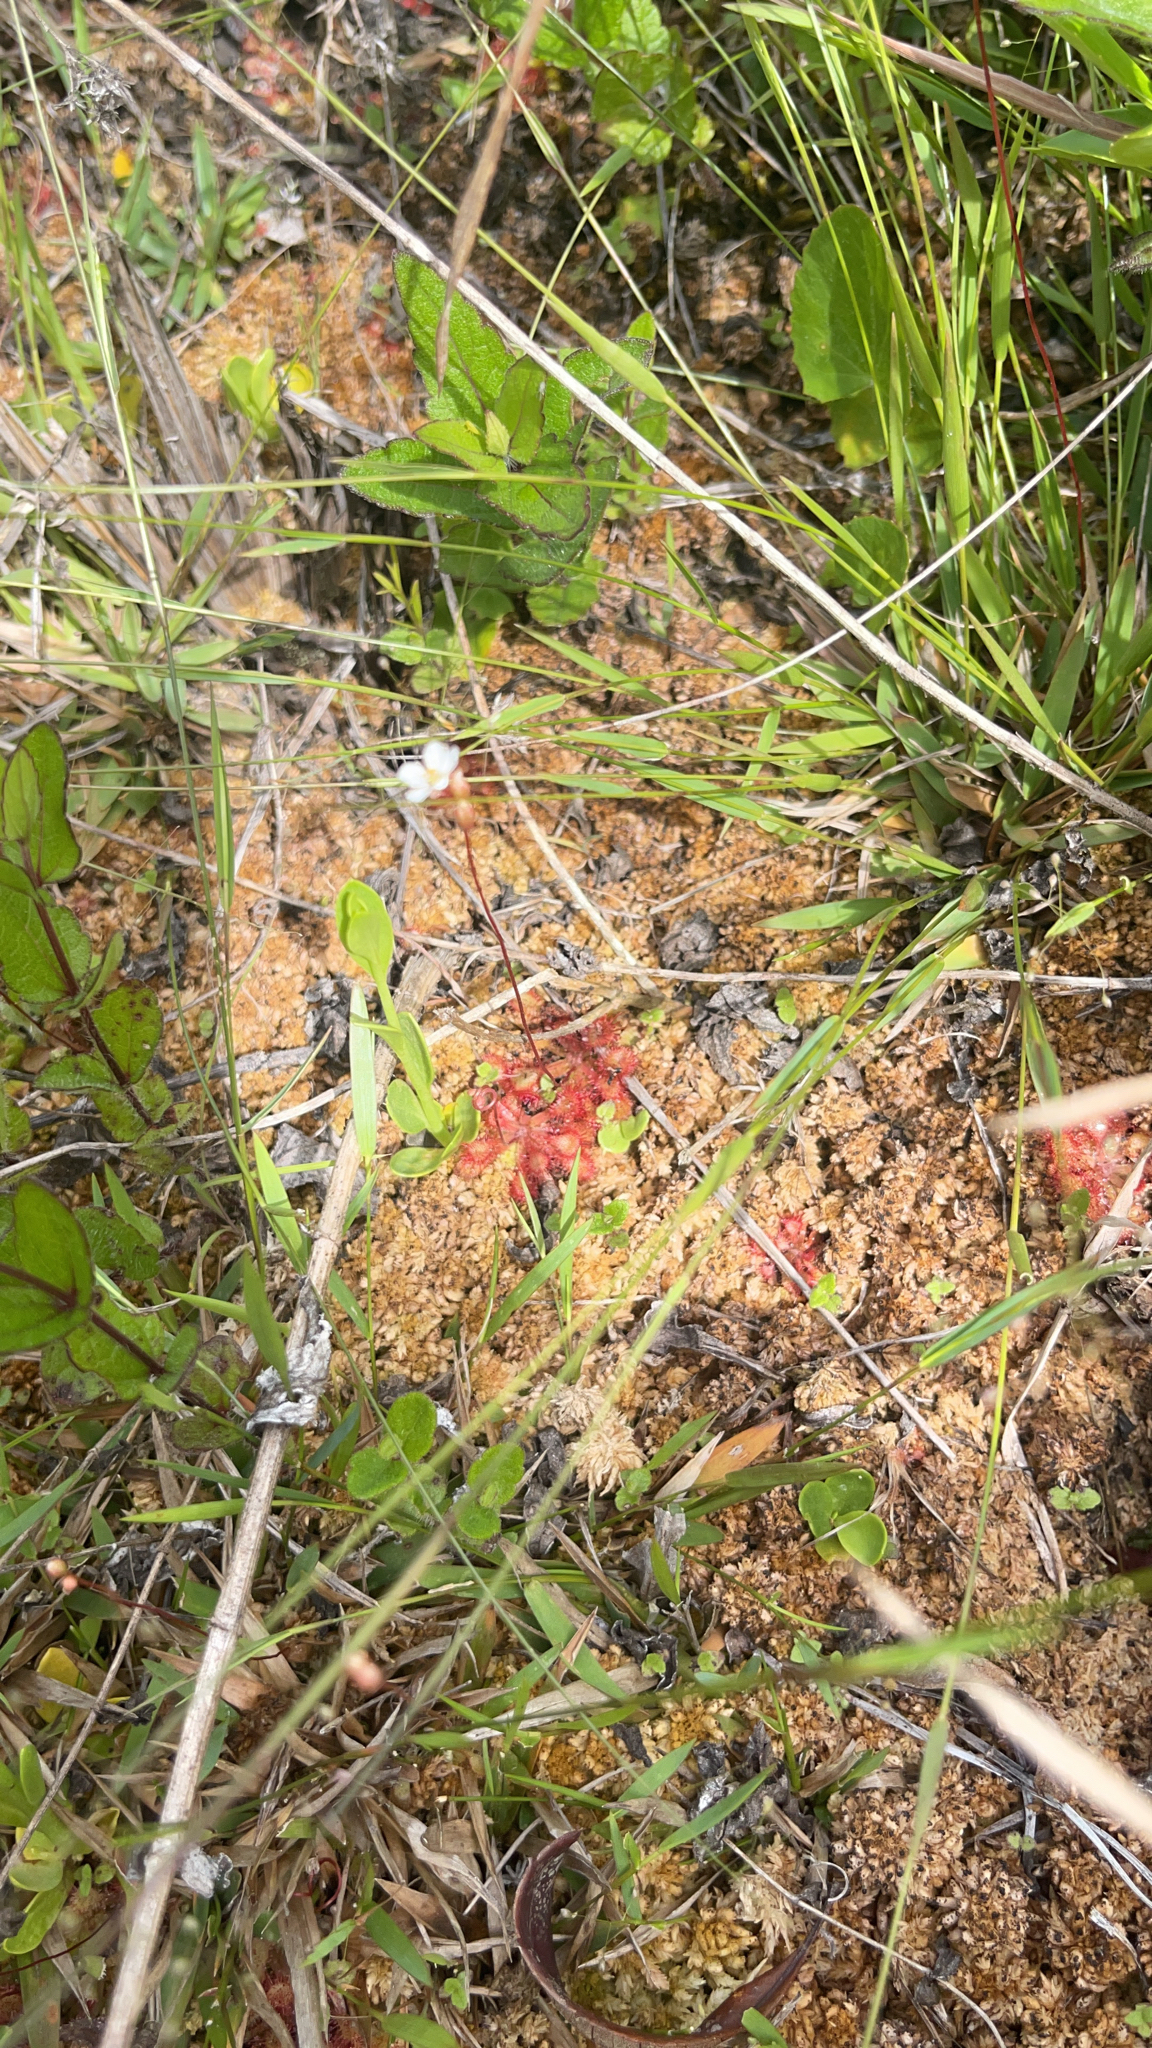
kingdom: Plantae
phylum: Tracheophyta
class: Magnoliopsida
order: Caryophyllales
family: Droseraceae
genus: Drosera
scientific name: Drosera capillaris
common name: Pink sundew
